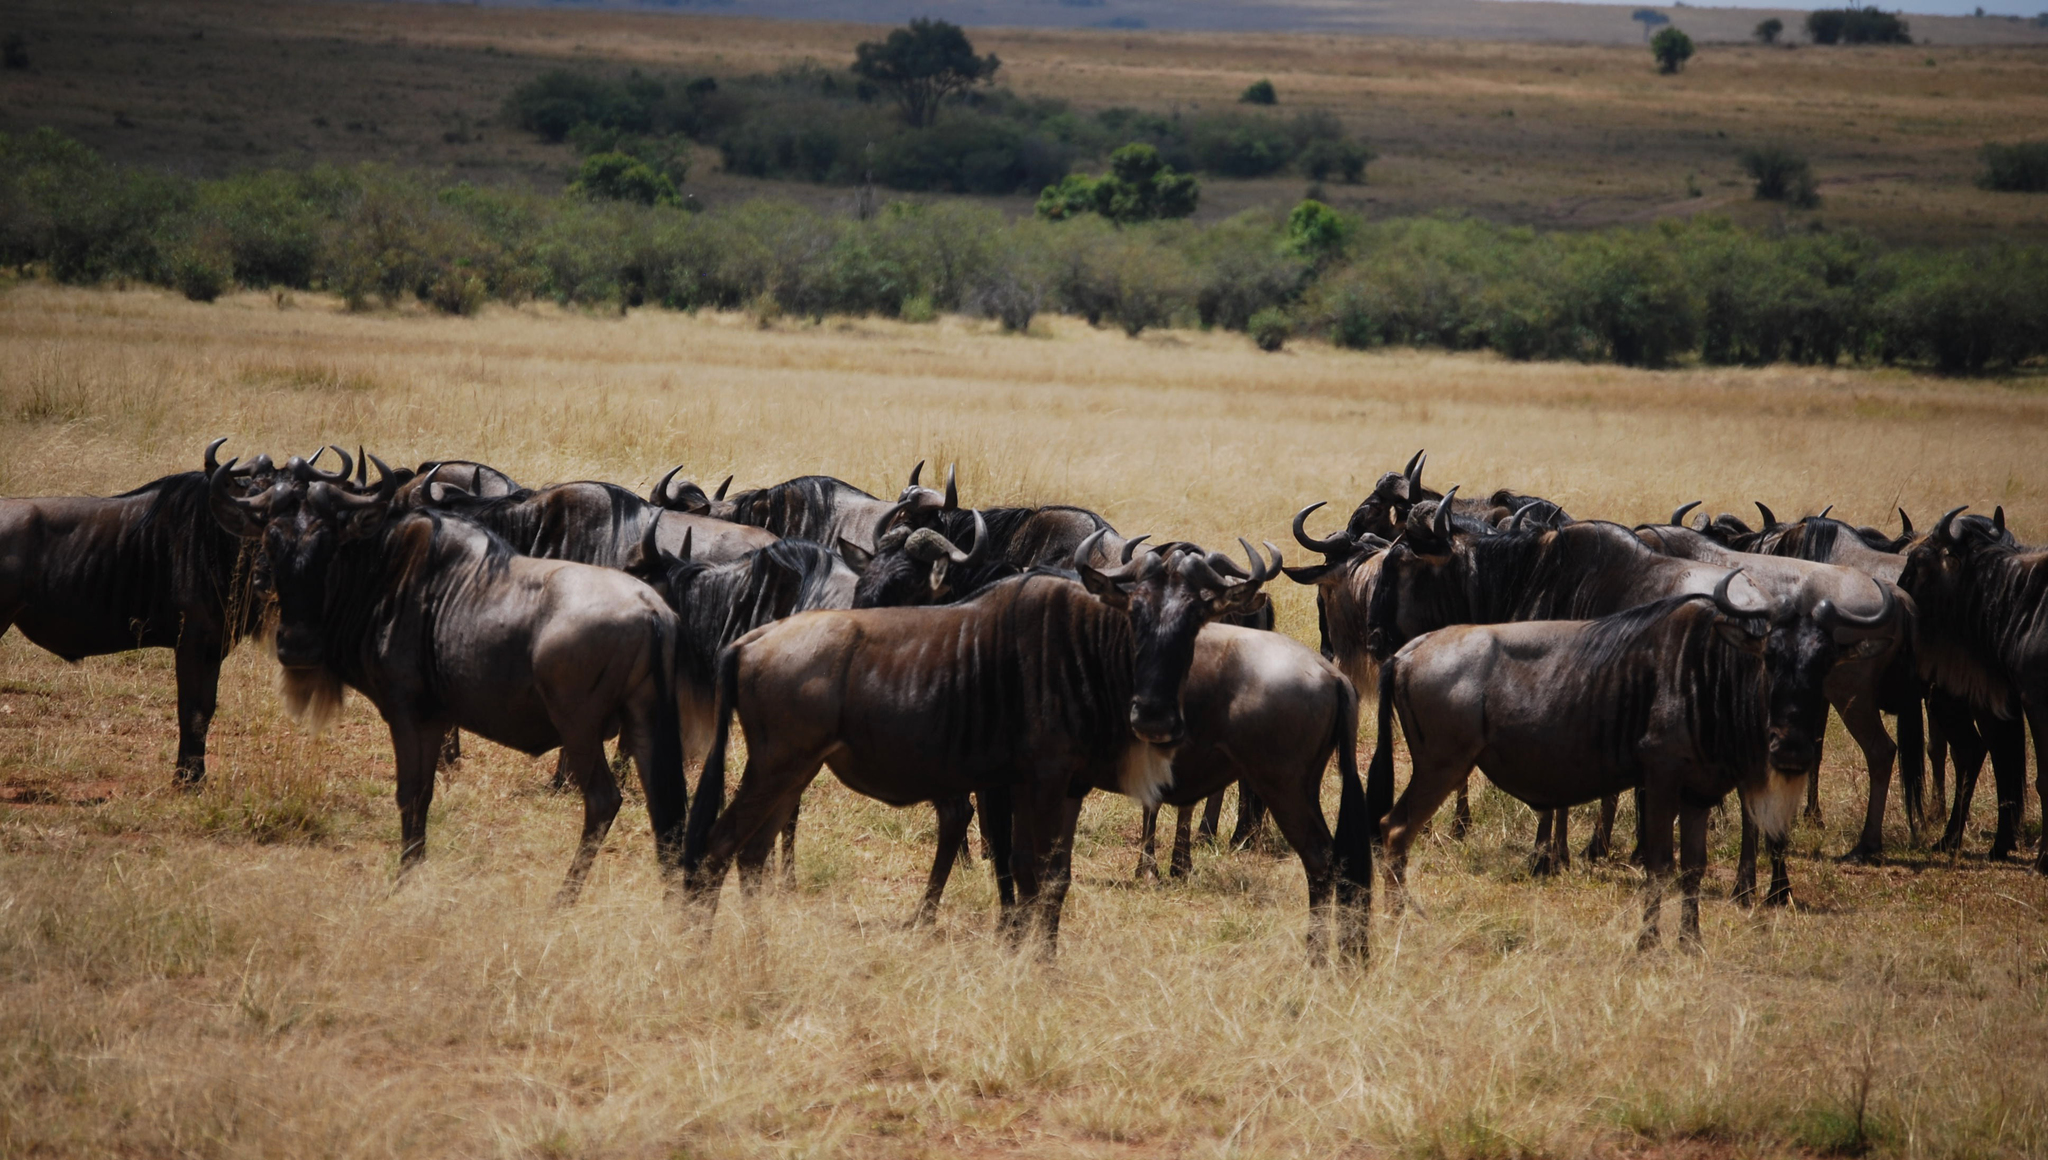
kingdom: Animalia
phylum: Chordata
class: Mammalia
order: Artiodactyla
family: Bovidae
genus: Connochaetes
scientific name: Connochaetes taurinus
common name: Blue wildebeest
